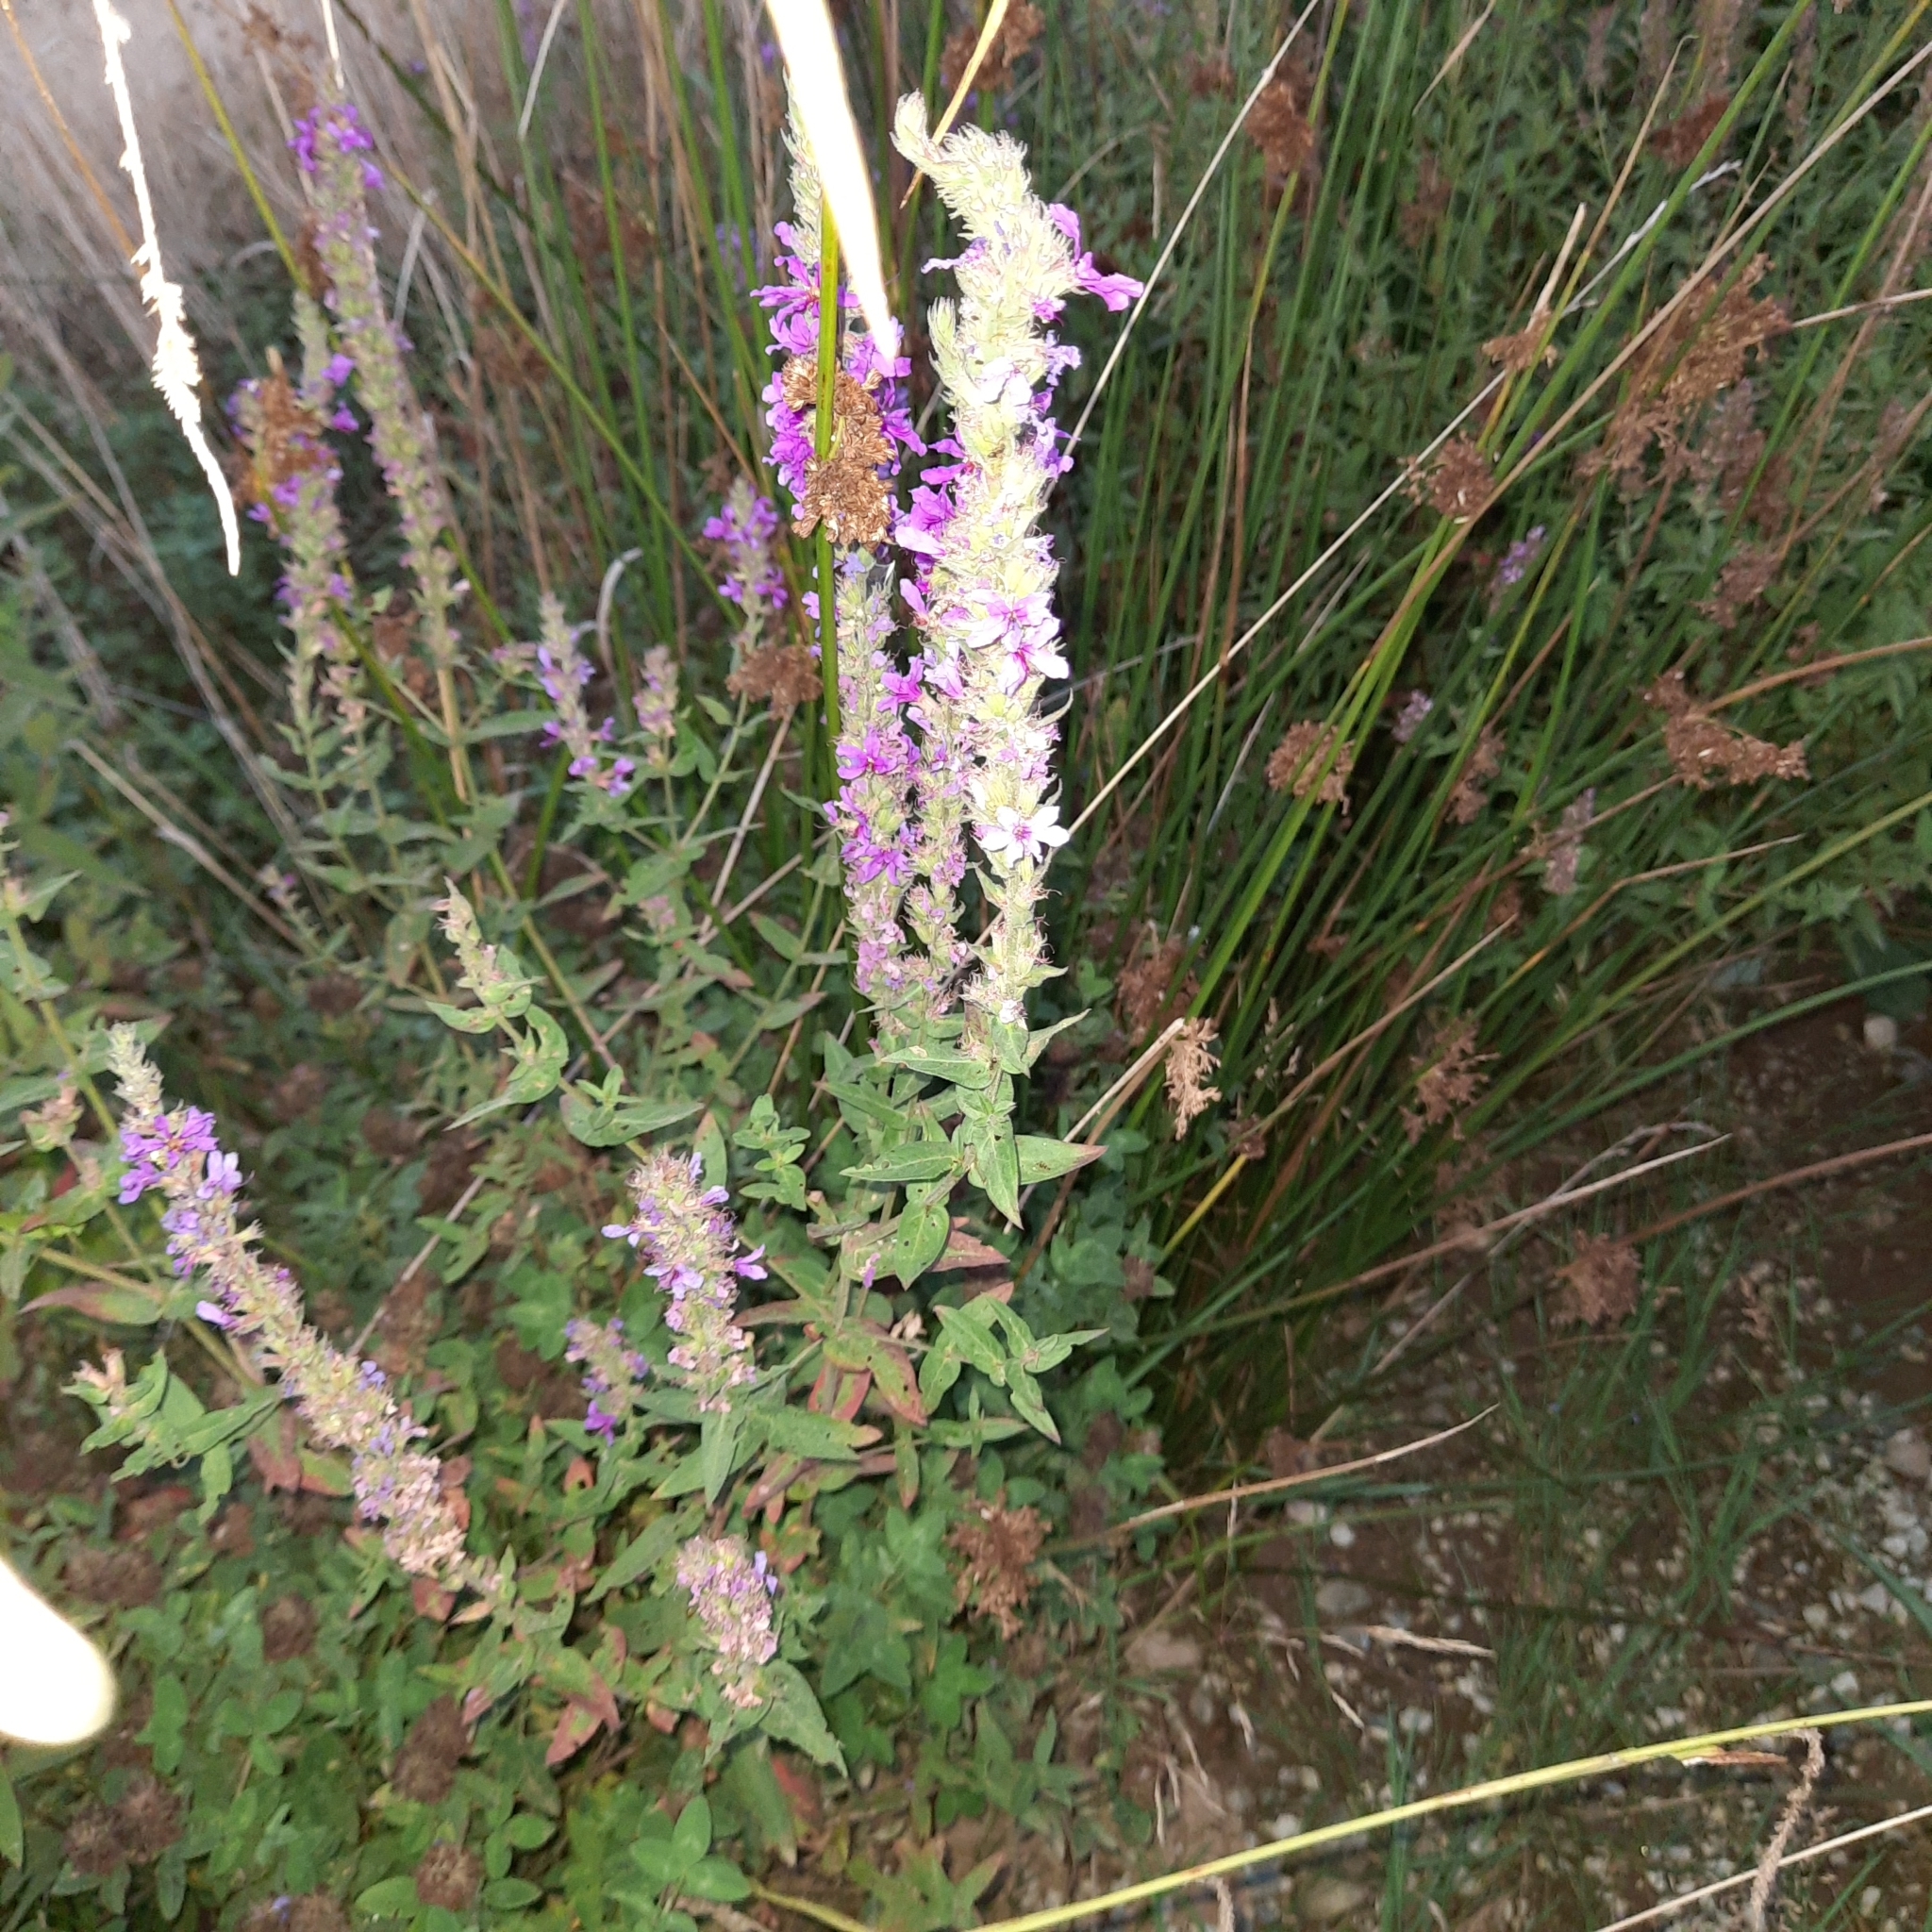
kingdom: Plantae
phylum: Tracheophyta
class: Magnoliopsida
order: Myrtales
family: Lythraceae
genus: Lythrum
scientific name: Lythrum salicaria
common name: Purple loosestrife
